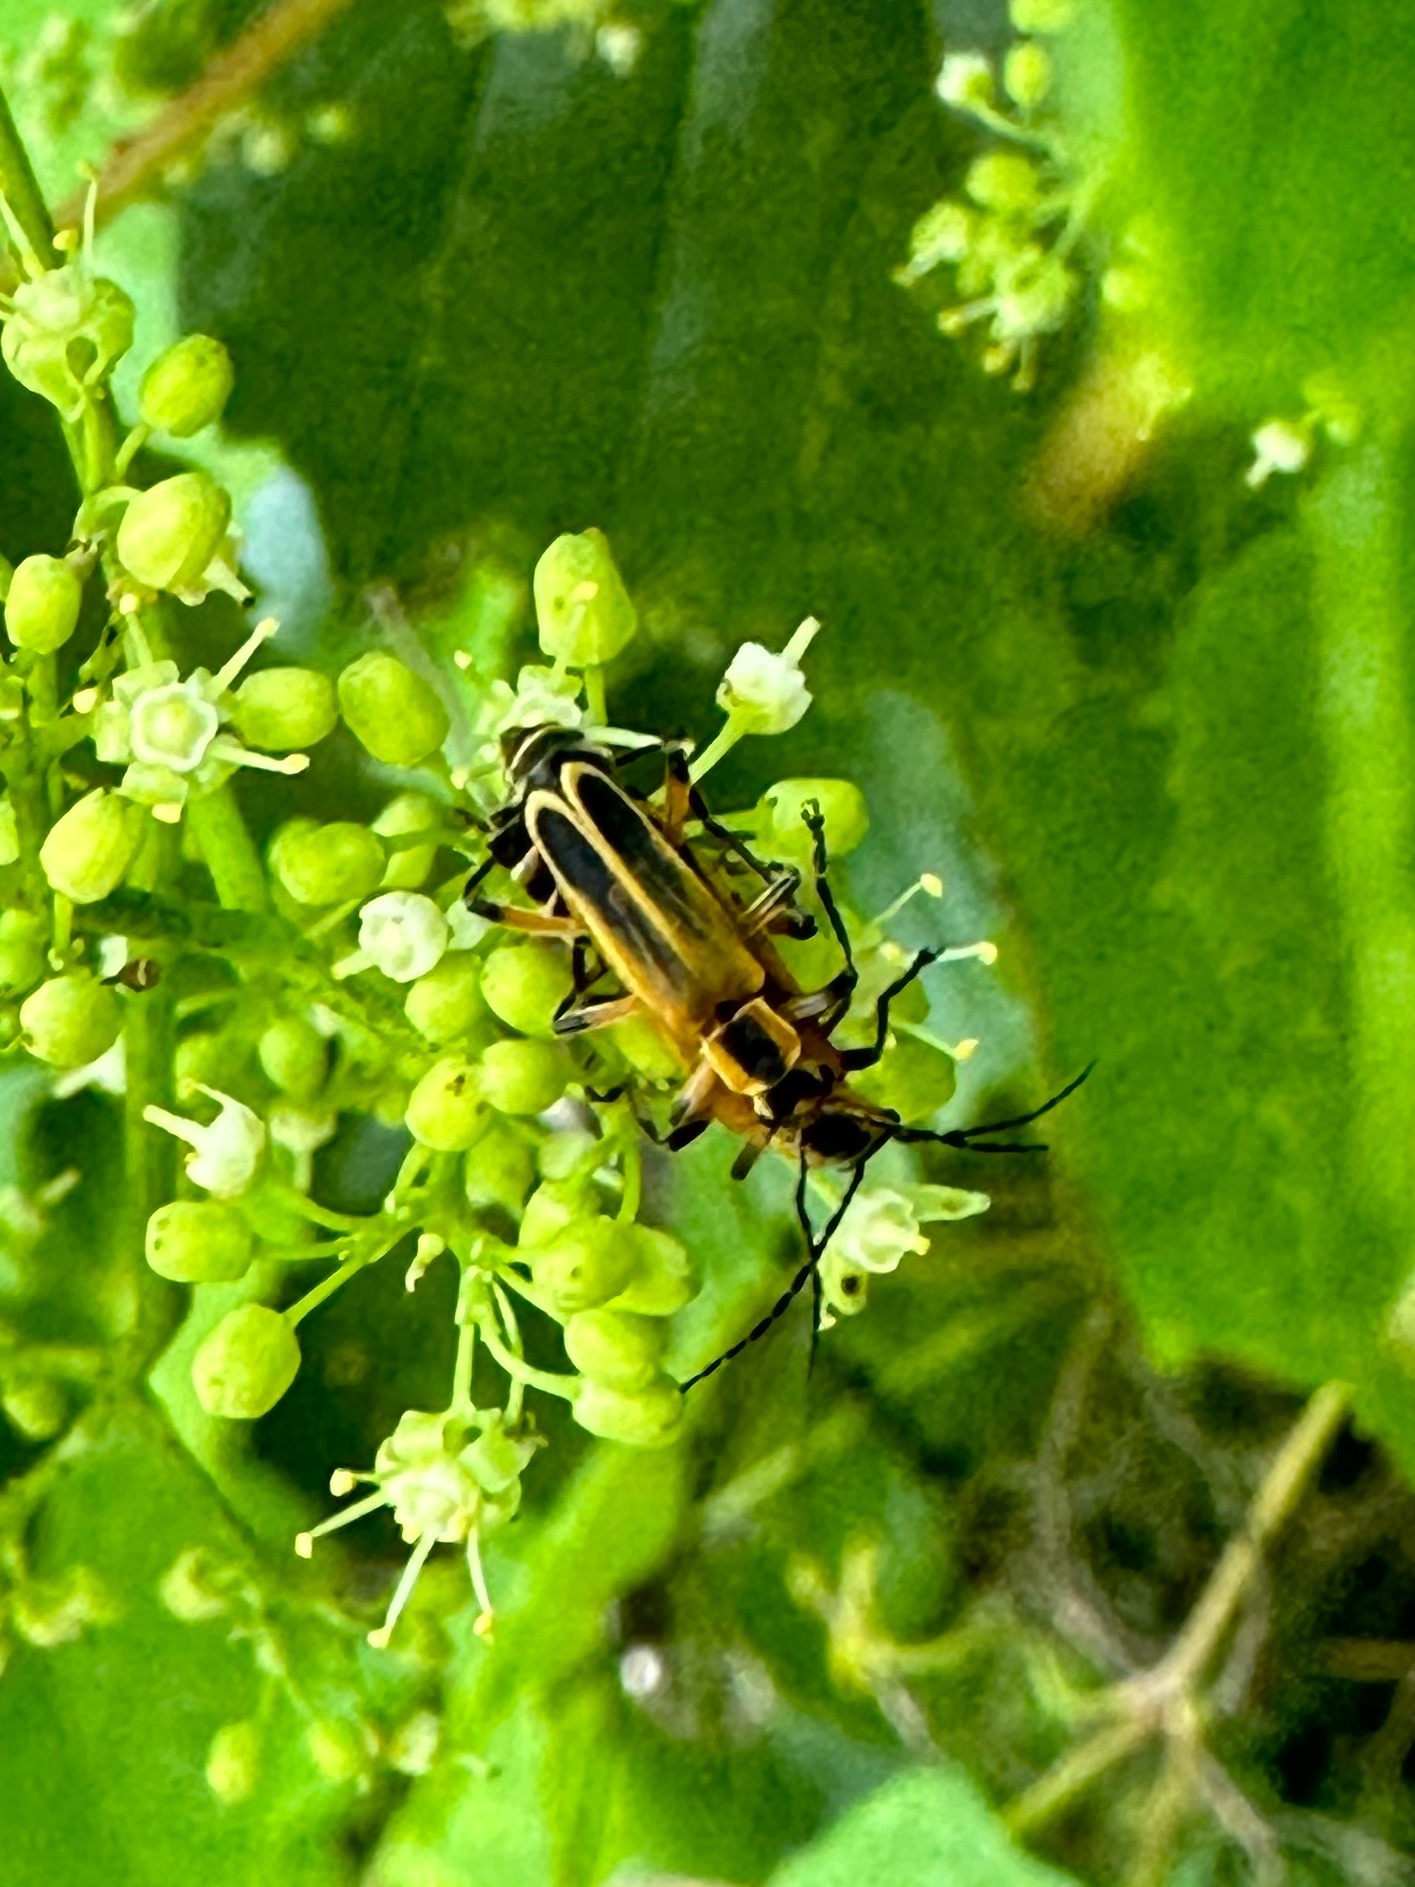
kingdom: Animalia
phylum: Arthropoda
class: Insecta
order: Coleoptera
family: Cantharidae
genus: Chauliognathus
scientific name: Chauliognathus marginatus
